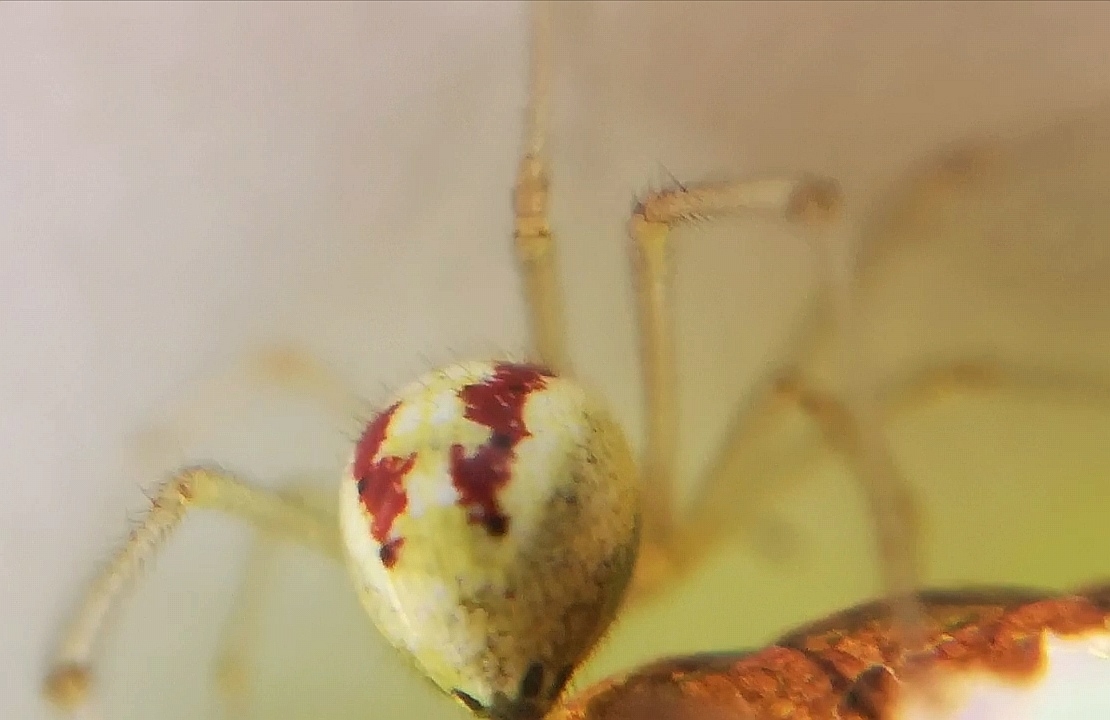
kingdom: Animalia
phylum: Arthropoda
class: Arachnida
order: Araneae
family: Theridiidae
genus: Enoplognatha
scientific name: Enoplognatha ovata
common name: Common candy-striped spider
